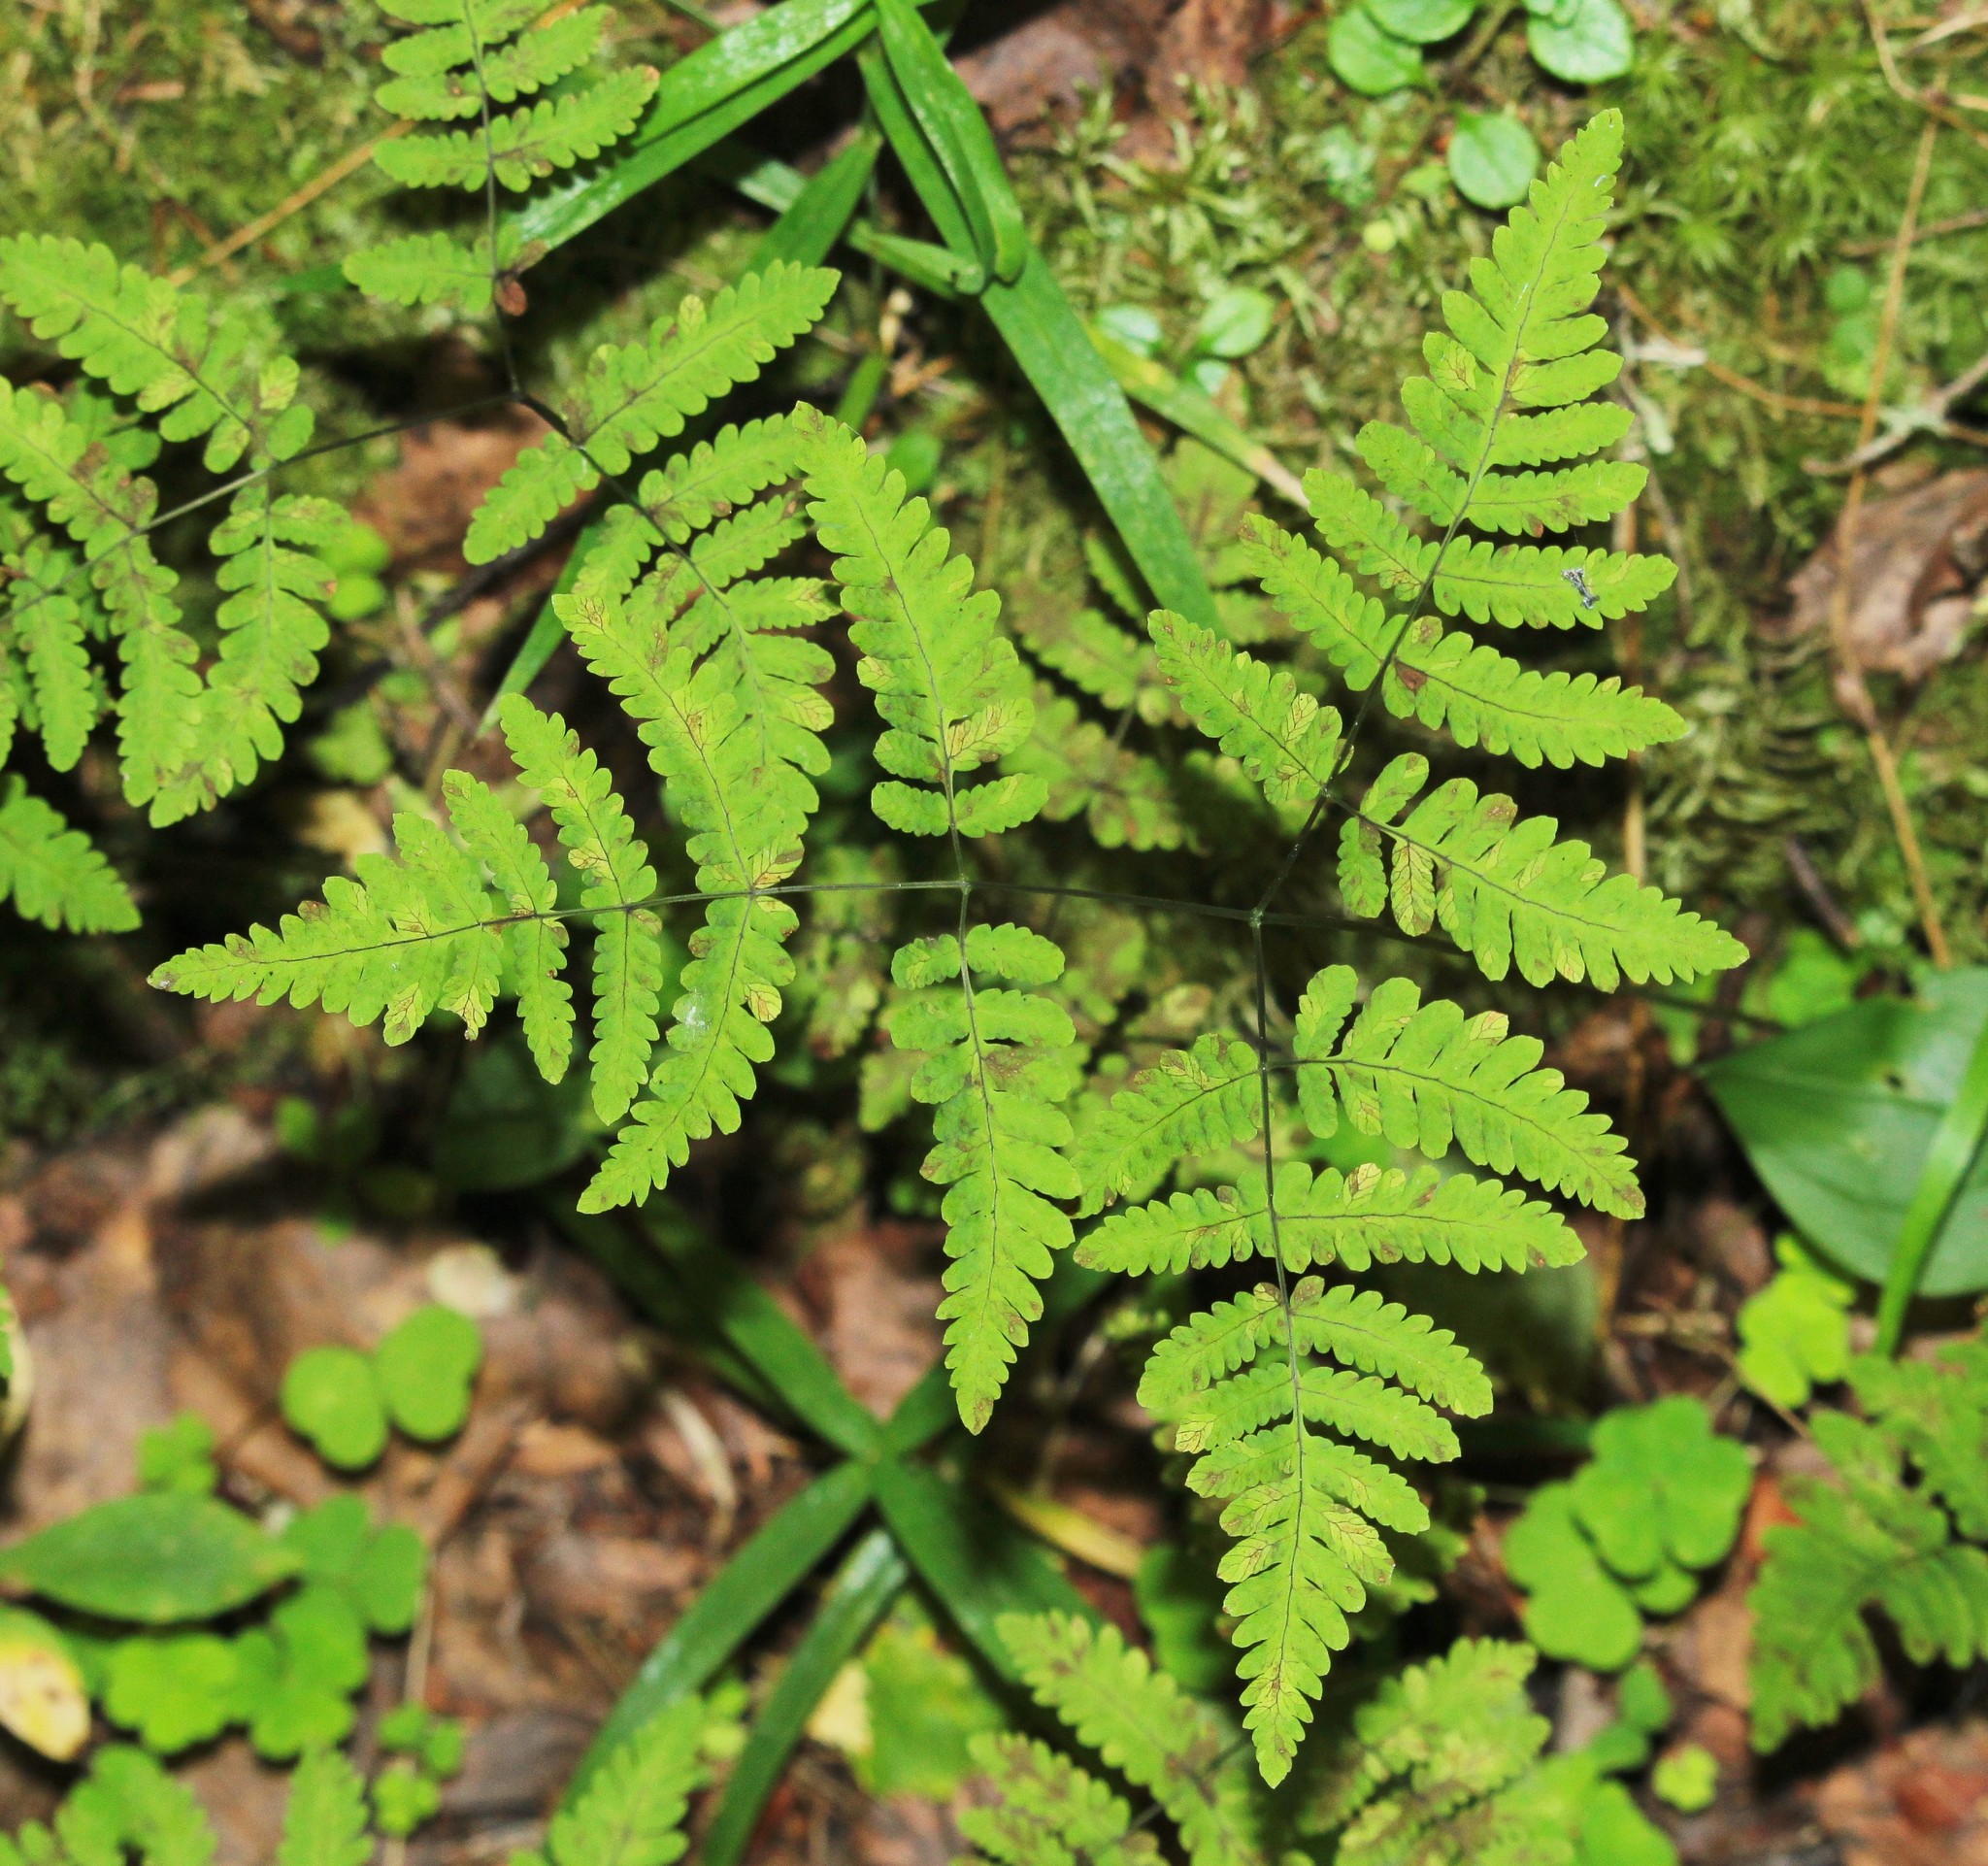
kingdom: Plantae
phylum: Tracheophyta
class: Polypodiopsida
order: Polypodiales
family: Cystopteridaceae
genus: Gymnocarpium
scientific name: Gymnocarpium dryopteris
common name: Oak fern
